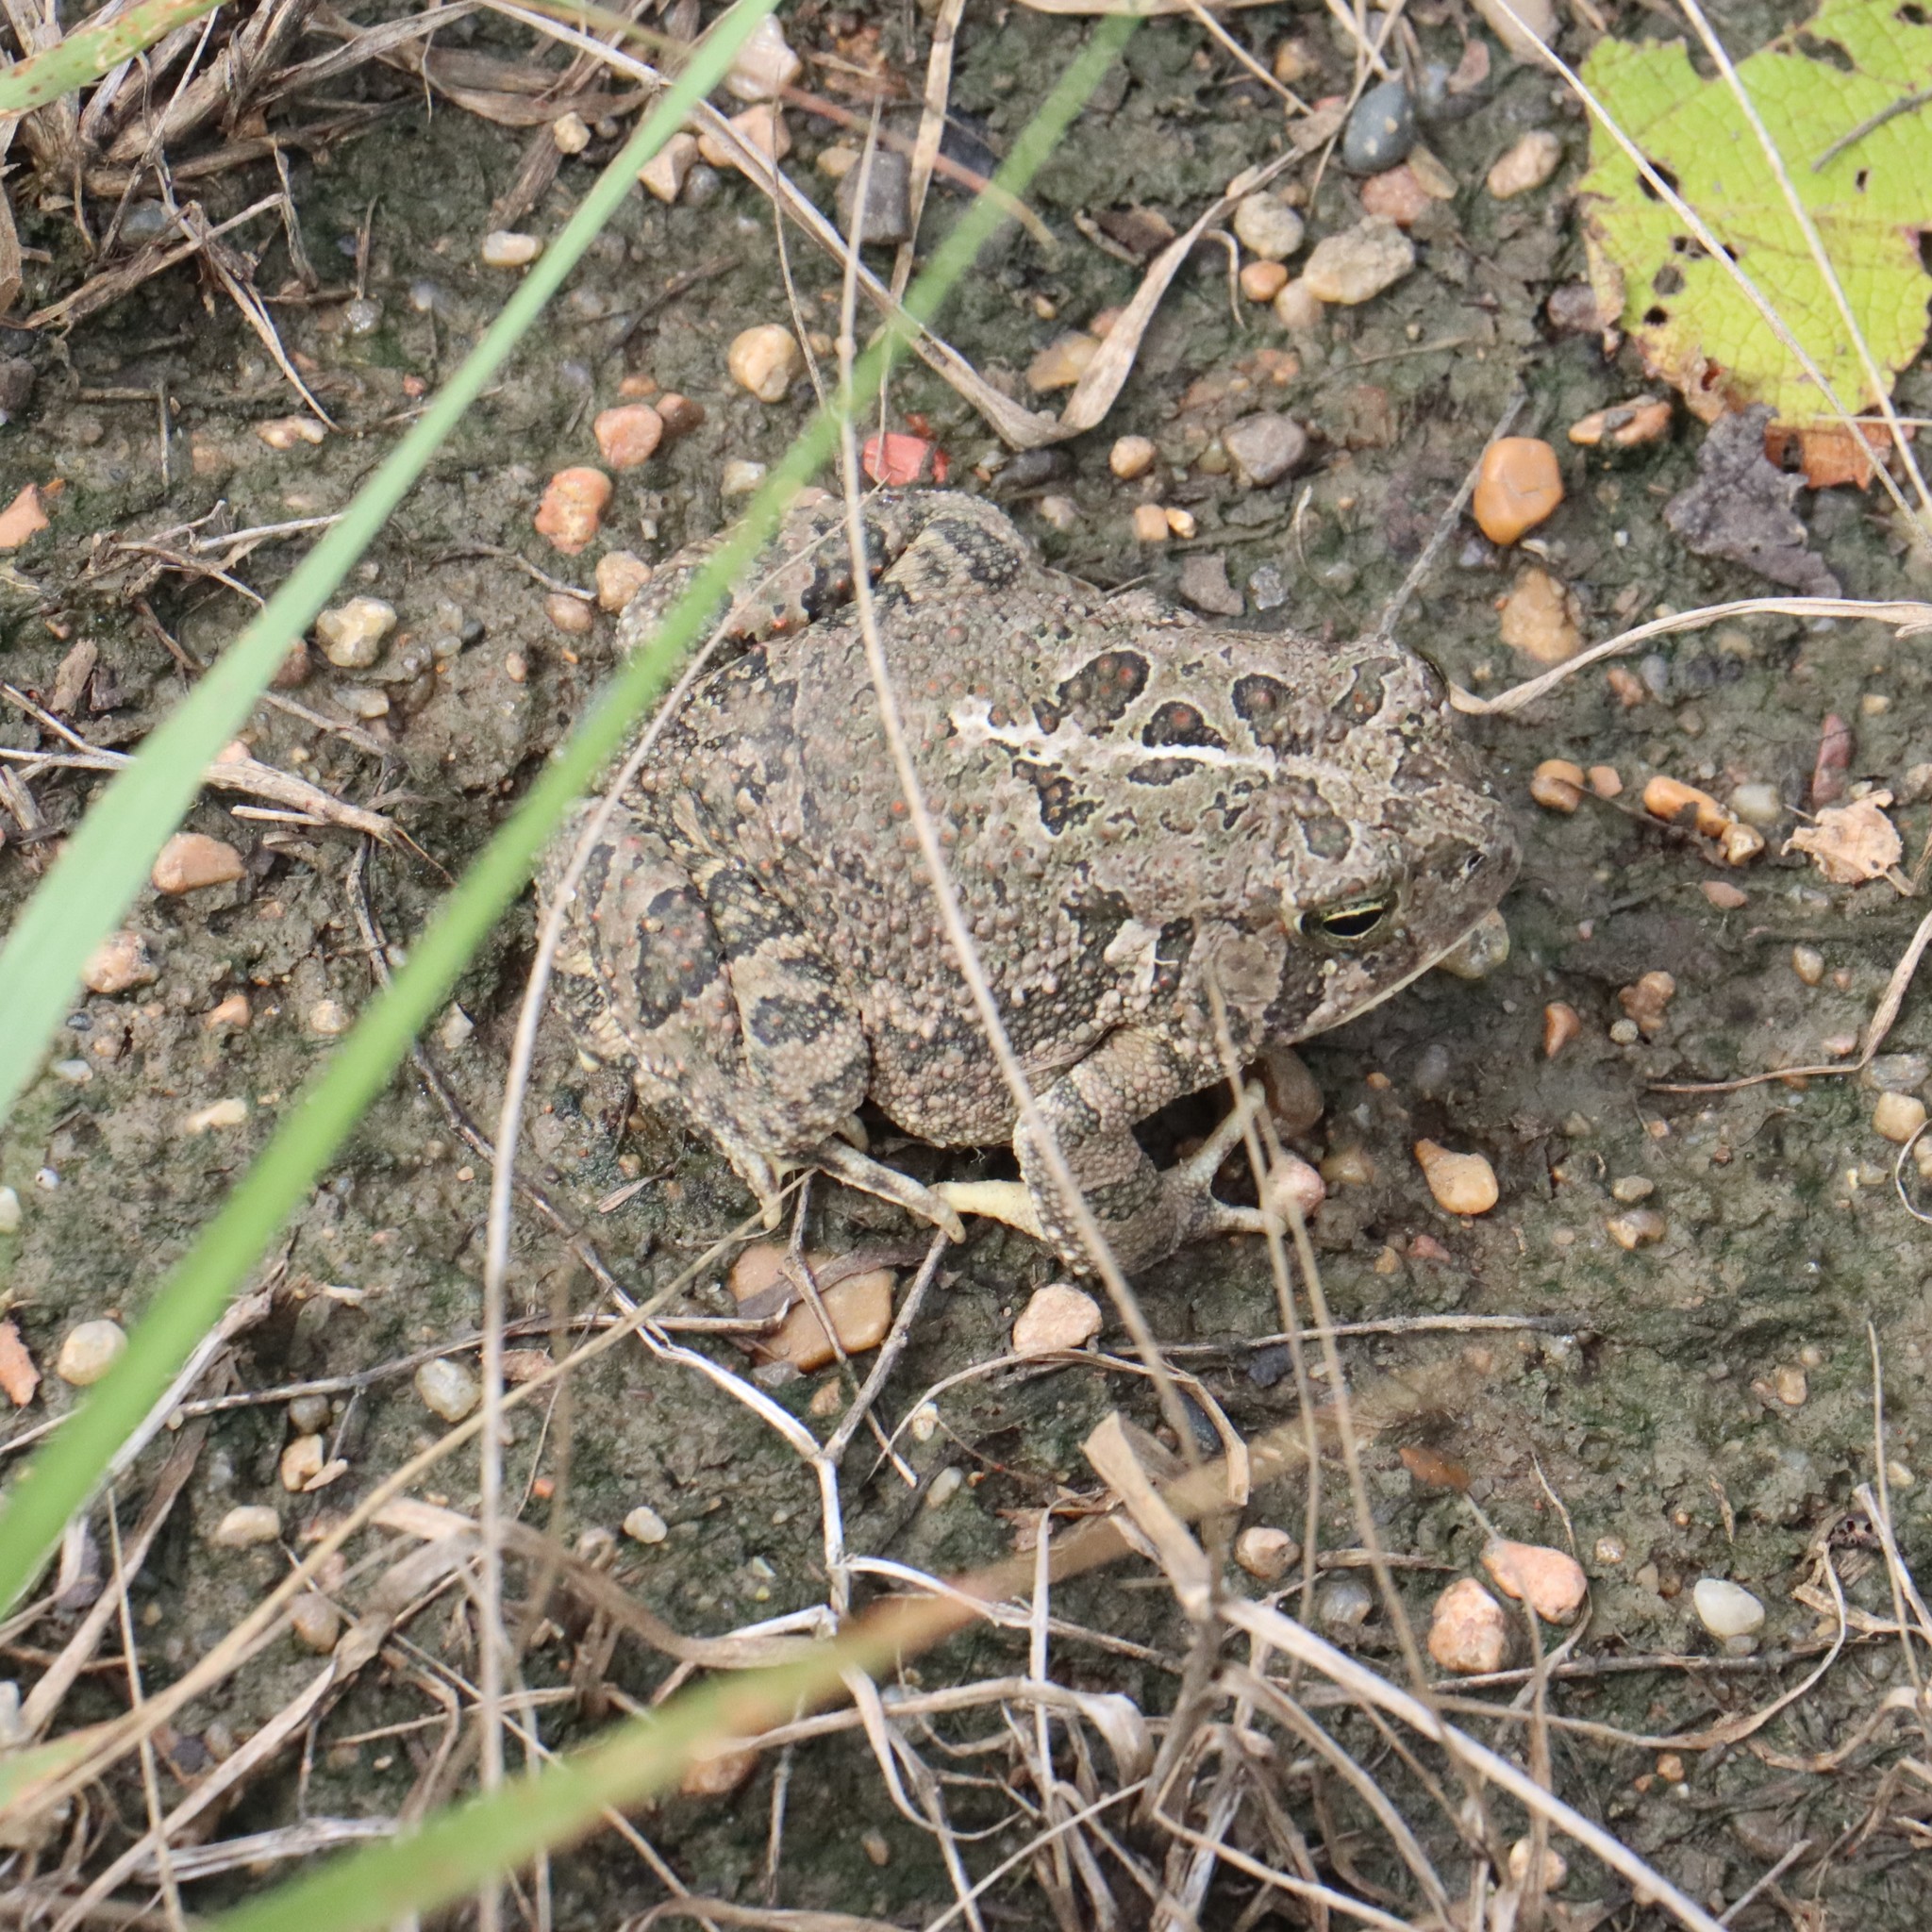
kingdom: Animalia
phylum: Chordata
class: Amphibia
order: Anura
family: Bufonidae
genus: Anaxyrus
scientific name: Anaxyrus fowleri
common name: Fowler's toad
